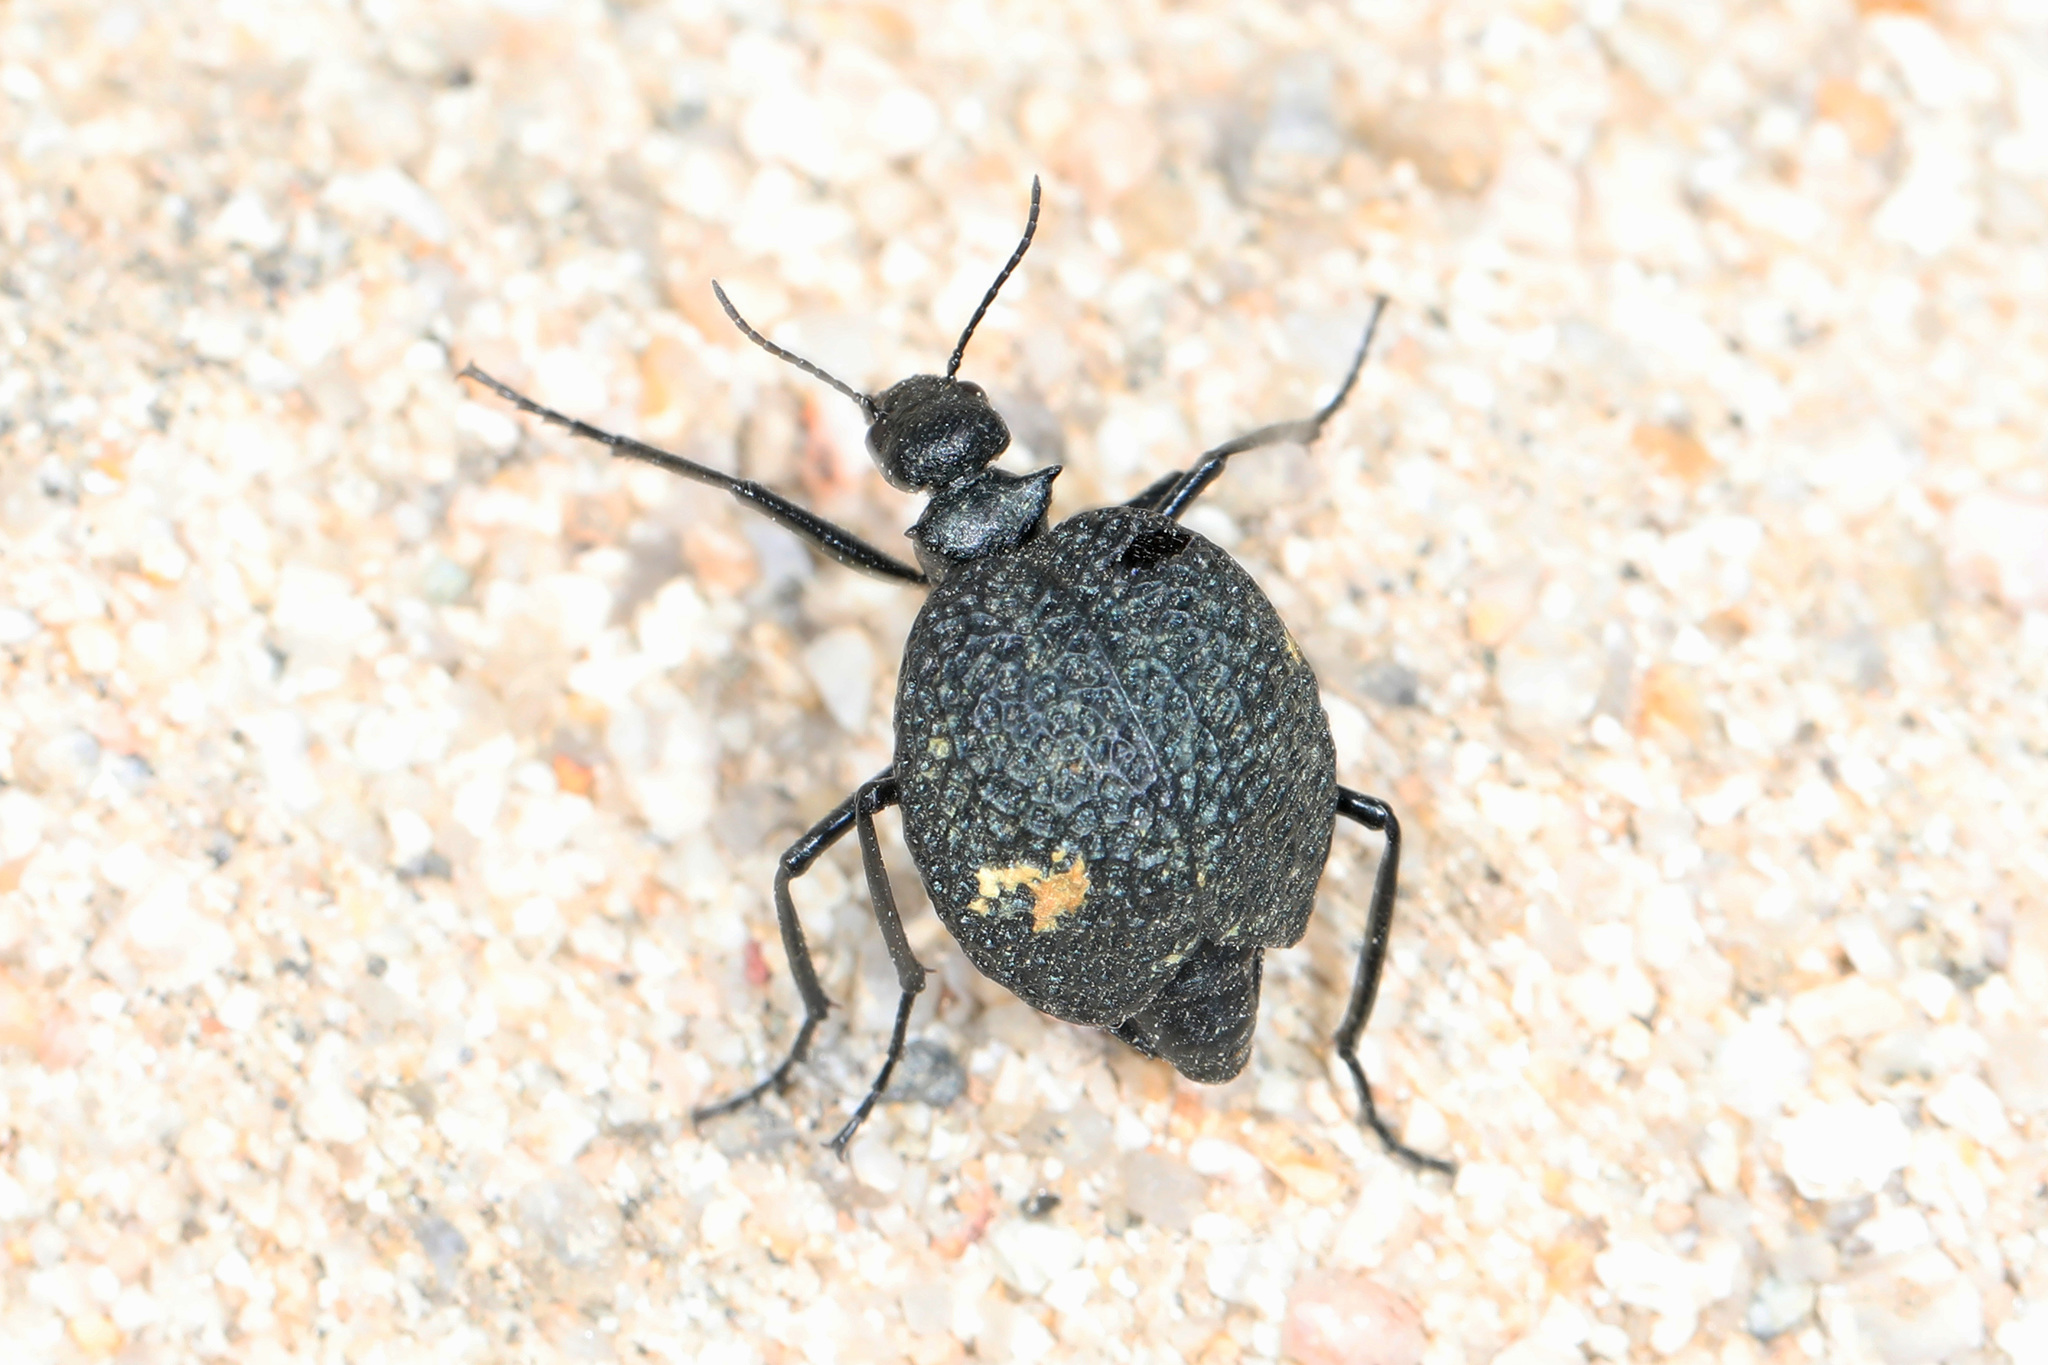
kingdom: Animalia
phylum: Arthropoda
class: Insecta
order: Coleoptera
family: Meloidae
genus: Cysteodemus
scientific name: Cysteodemus armatus
